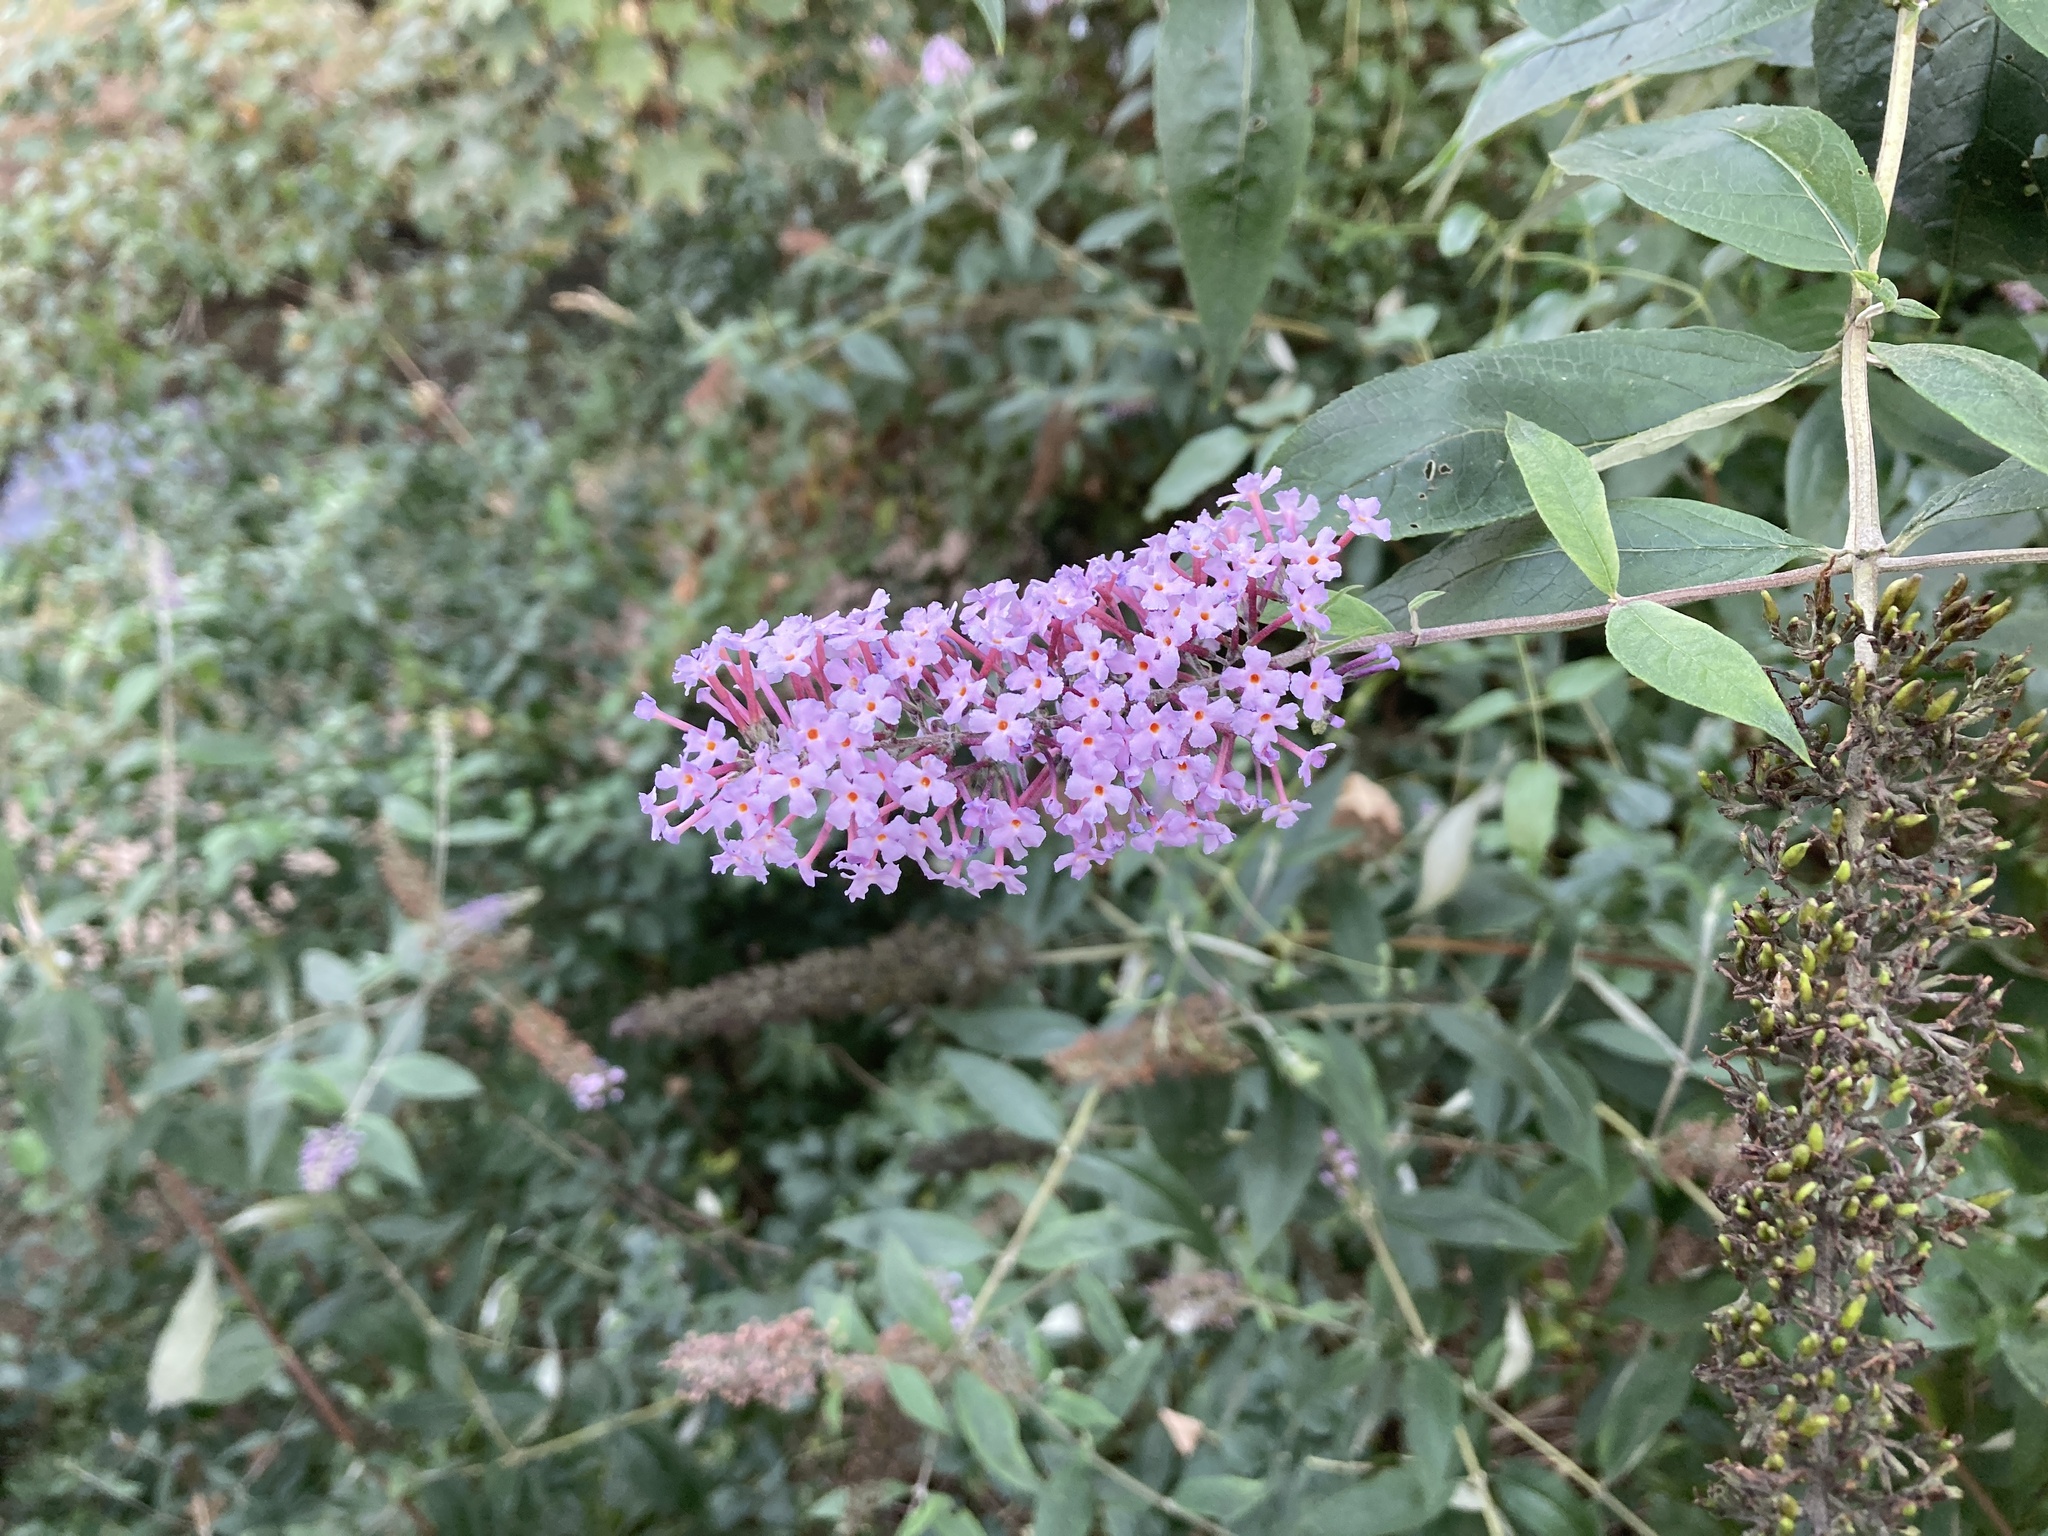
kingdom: Plantae
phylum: Tracheophyta
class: Magnoliopsida
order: Lamiales
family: Scrophulariaceae
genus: Buddleja
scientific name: Buddleja davidii
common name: Butterfly-bush
